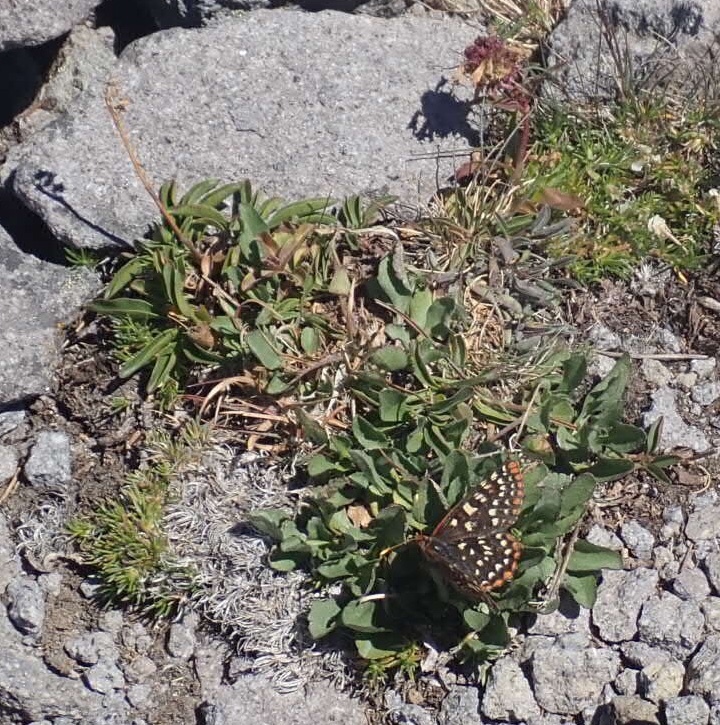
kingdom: Animalia
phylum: Arthropoda
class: Insecta
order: Lepidoptera
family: Nymphalidae
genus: Occidryas
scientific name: Occidryas colon
